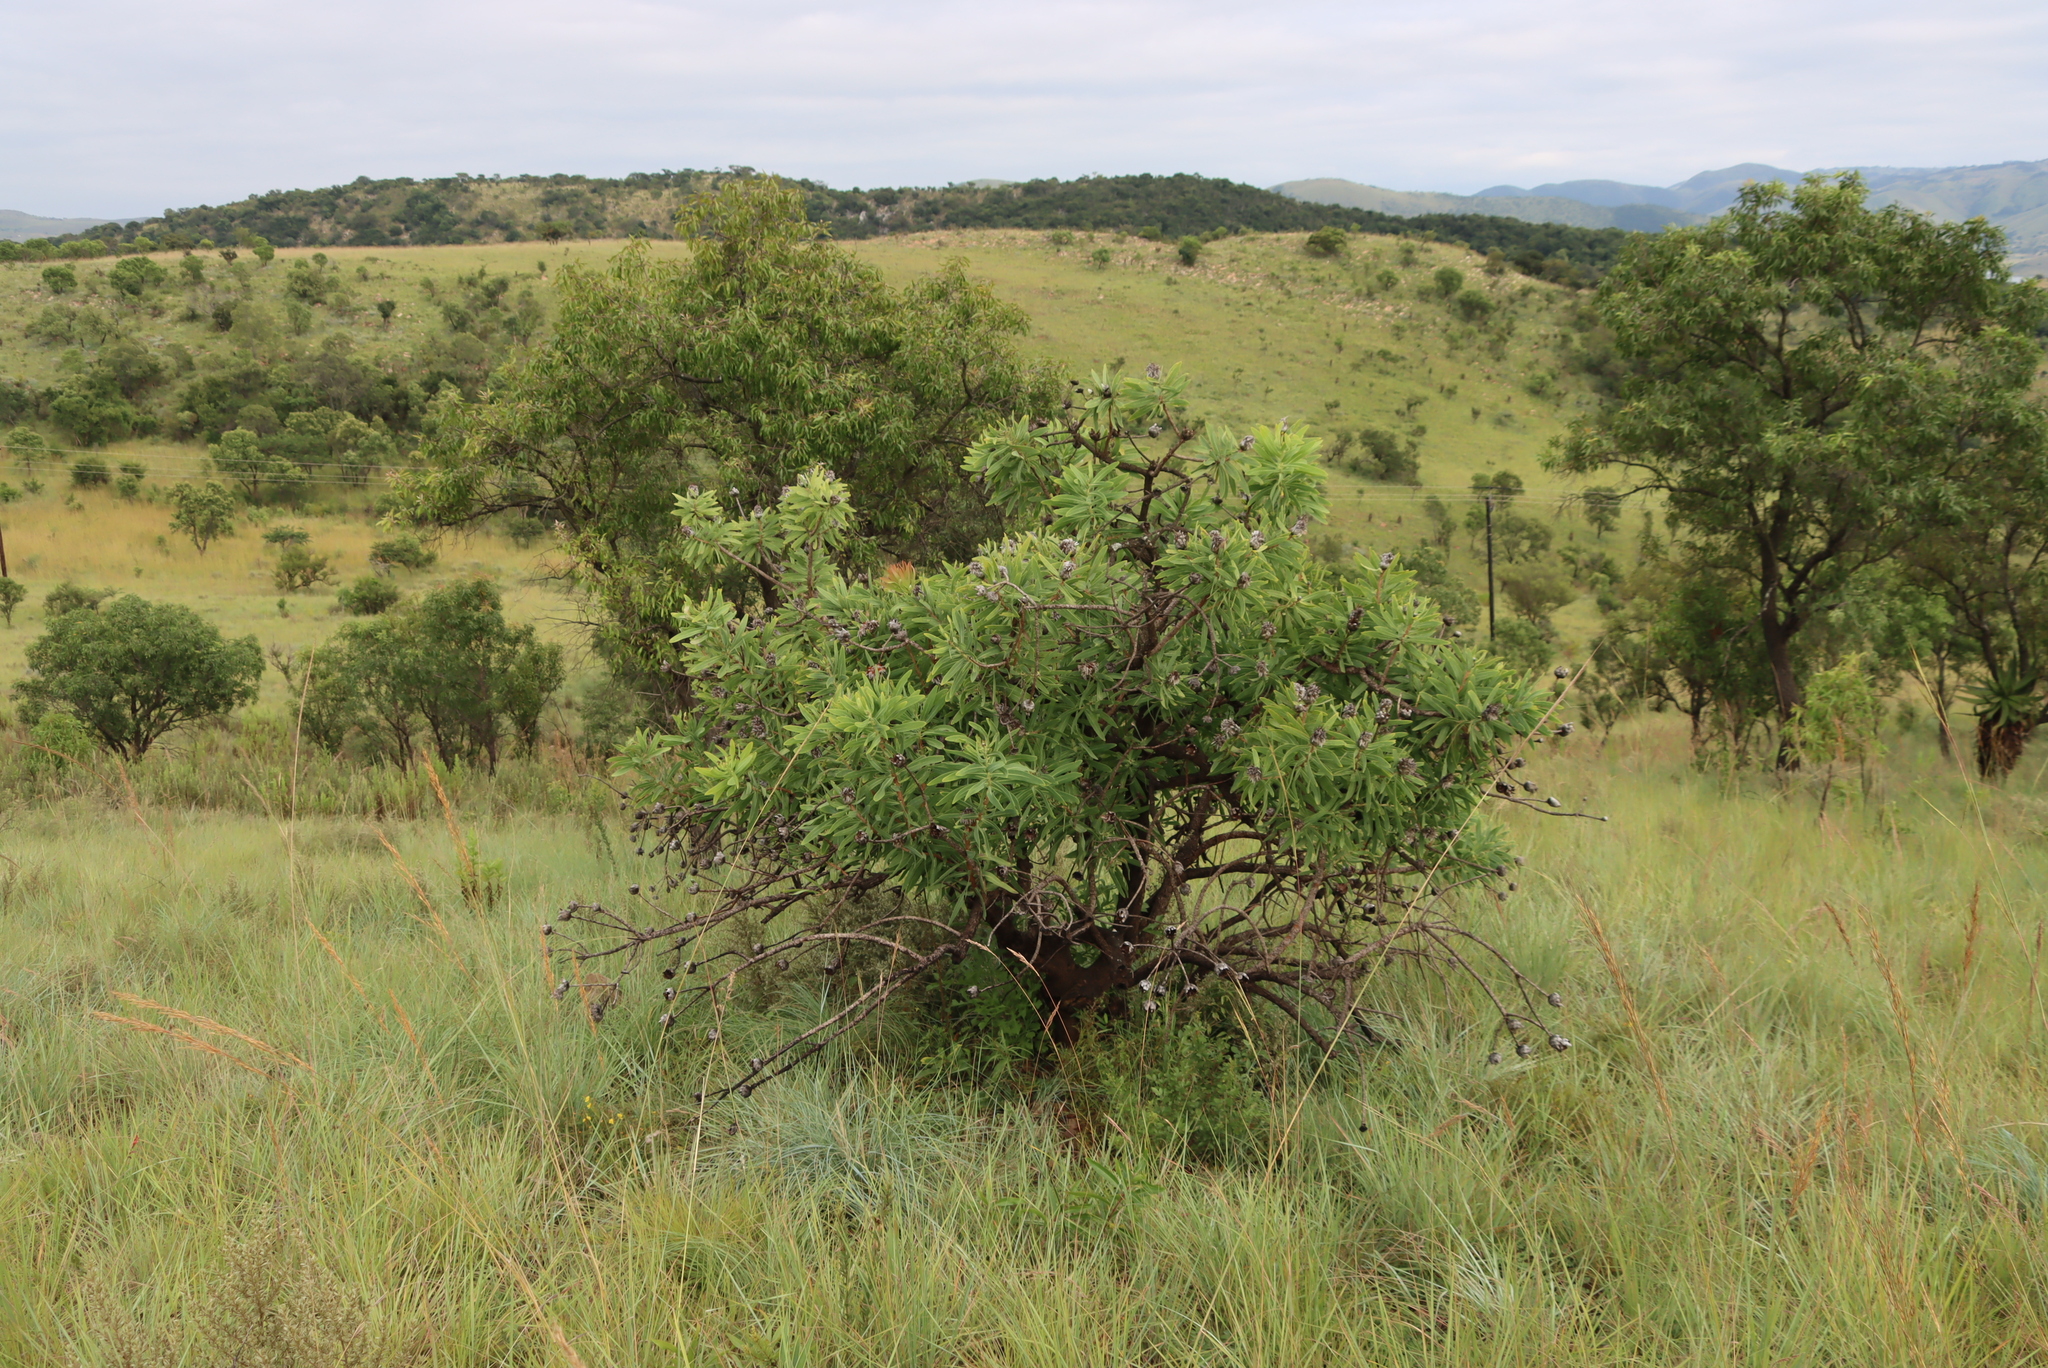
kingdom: Plantae
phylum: Tracheophyta
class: Magnoliopsida
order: Proteales
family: Proteaceae
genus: Protea
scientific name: Protea gaguedi
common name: African protea
